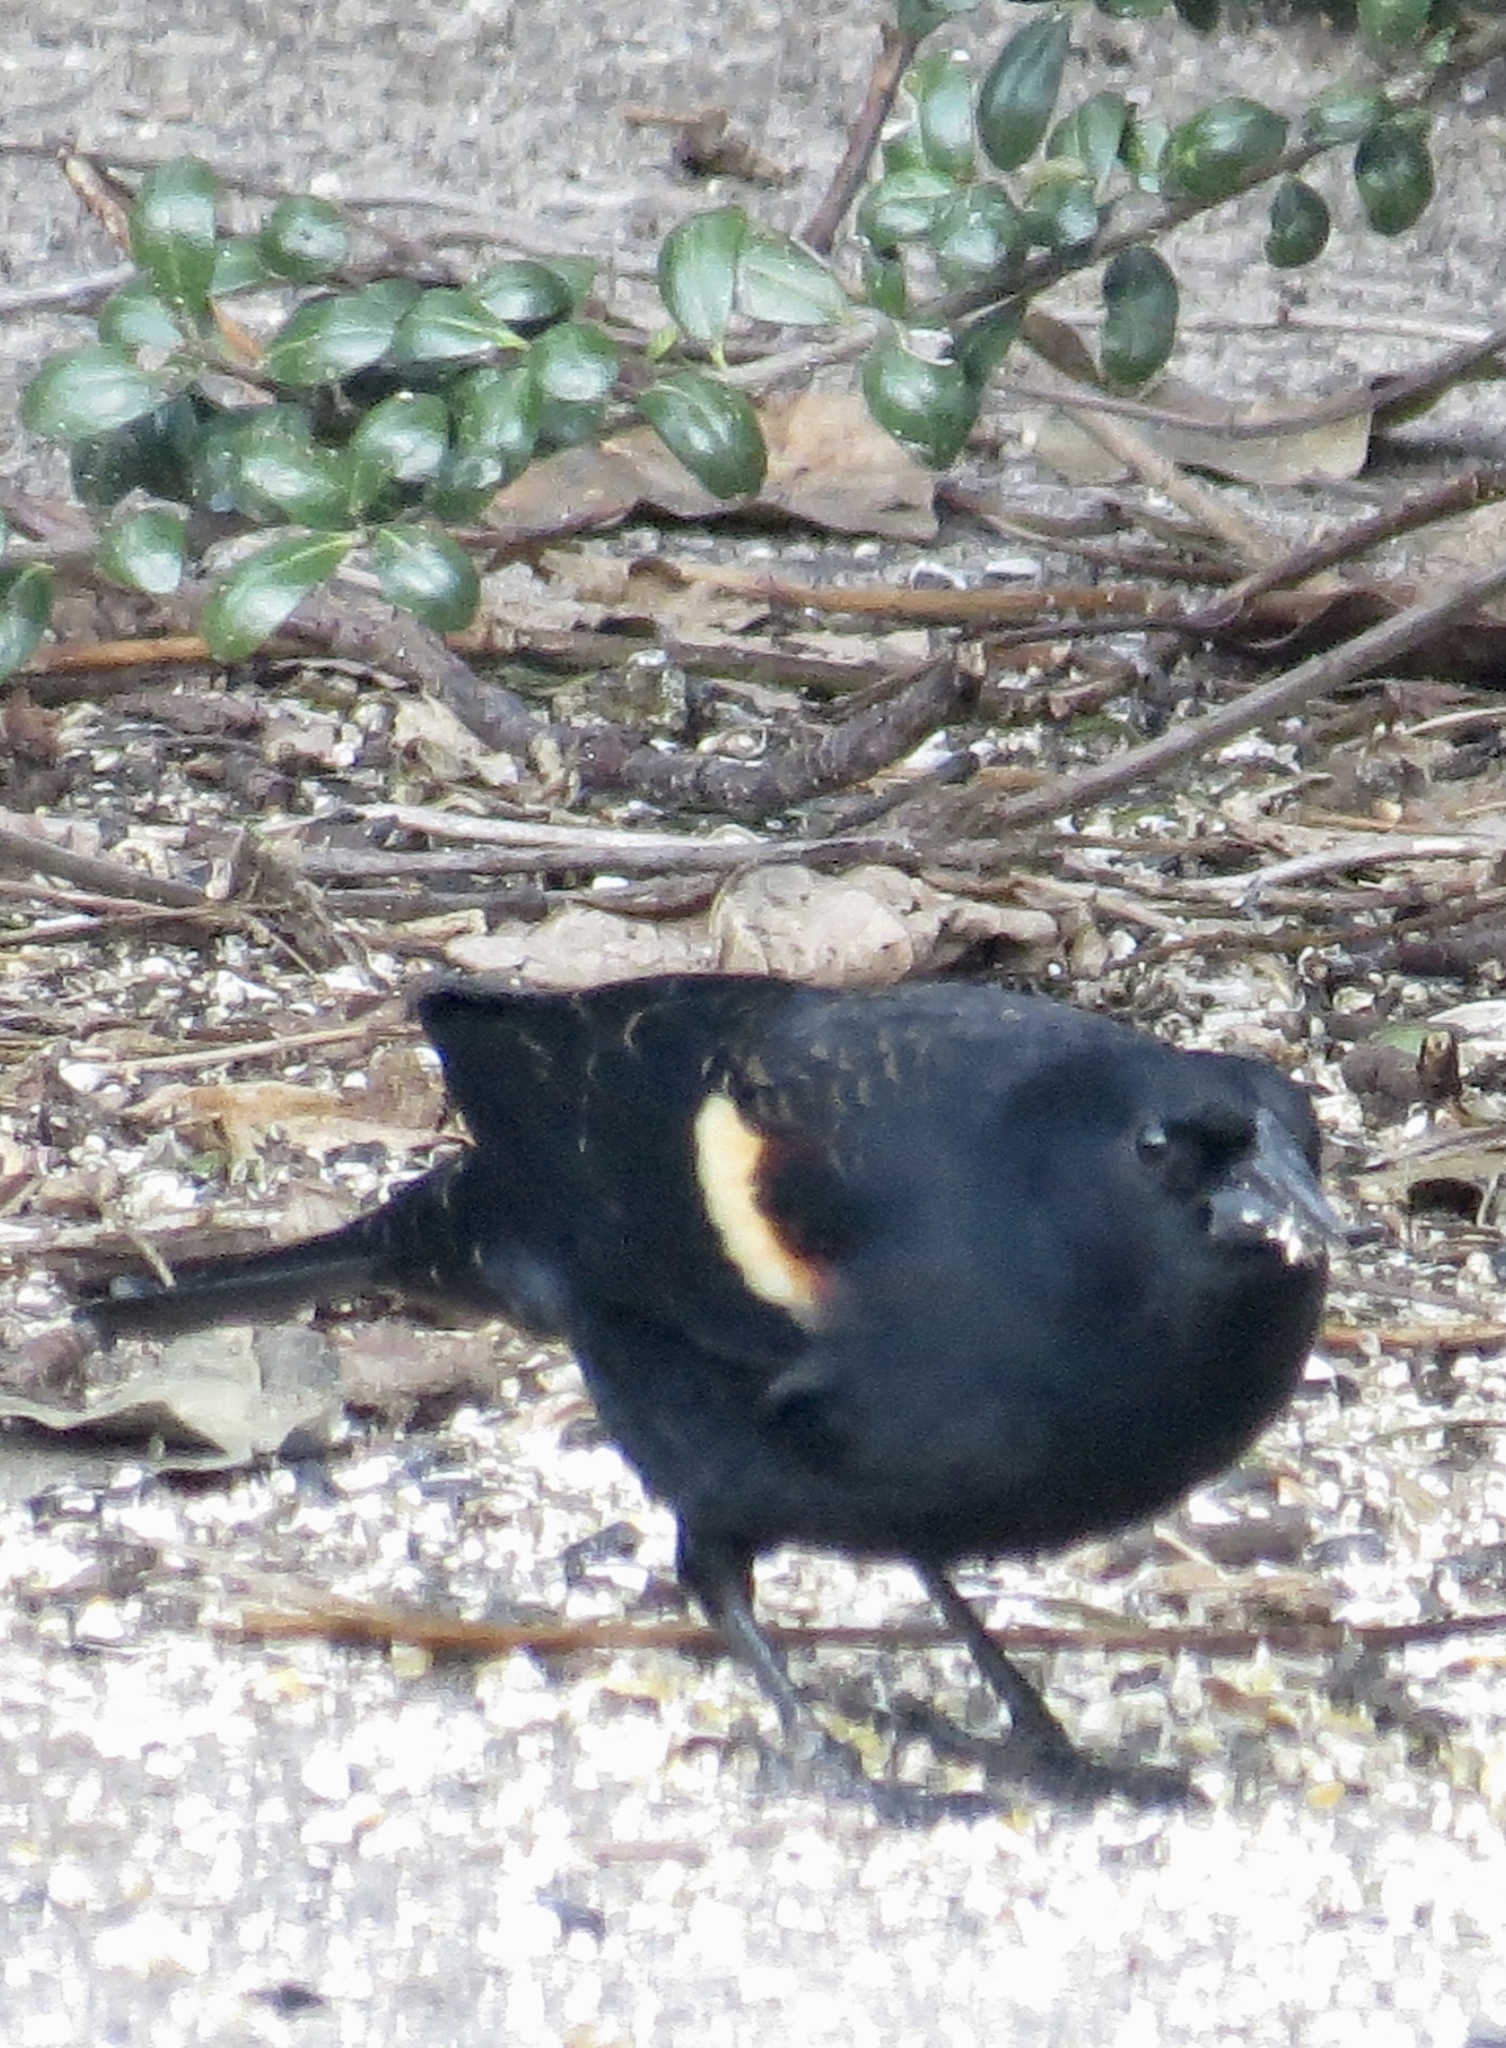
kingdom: Animalia
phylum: Chordata
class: Aves
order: Passeriformes
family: Icteridae
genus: Agelaius
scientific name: Agelaius phoeniceus
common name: Red-winged blackbird
